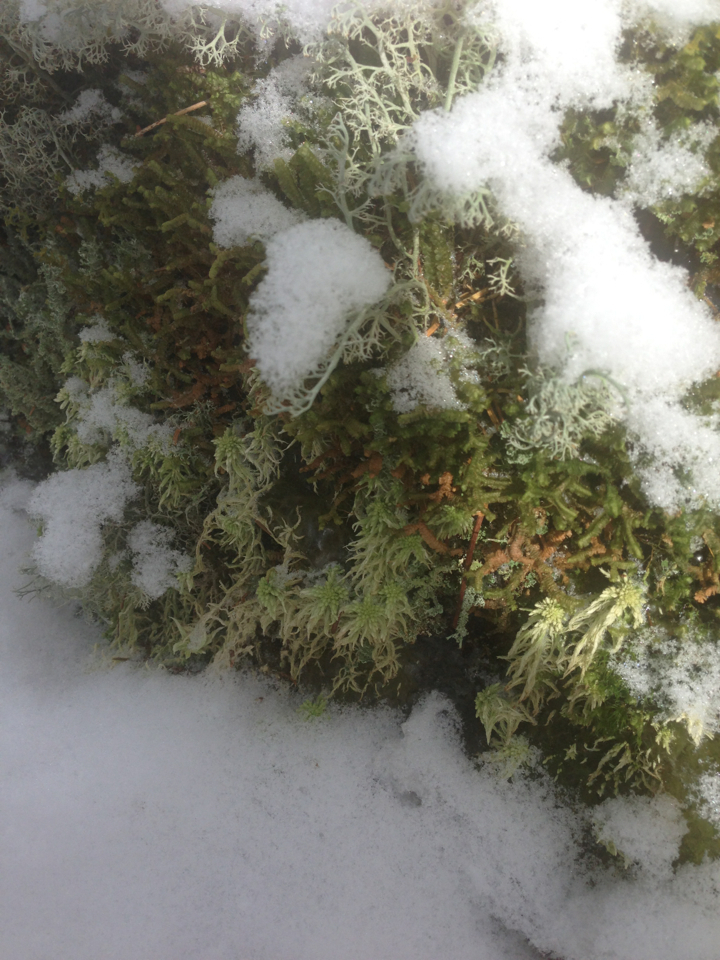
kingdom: Plantae
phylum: Marchantiophyta
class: Jungermanniopsida
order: Jungermanniales
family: Lepidoziaceae
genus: Bazzania
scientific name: Bazzania trilobata
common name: Three-lobed whipwort
